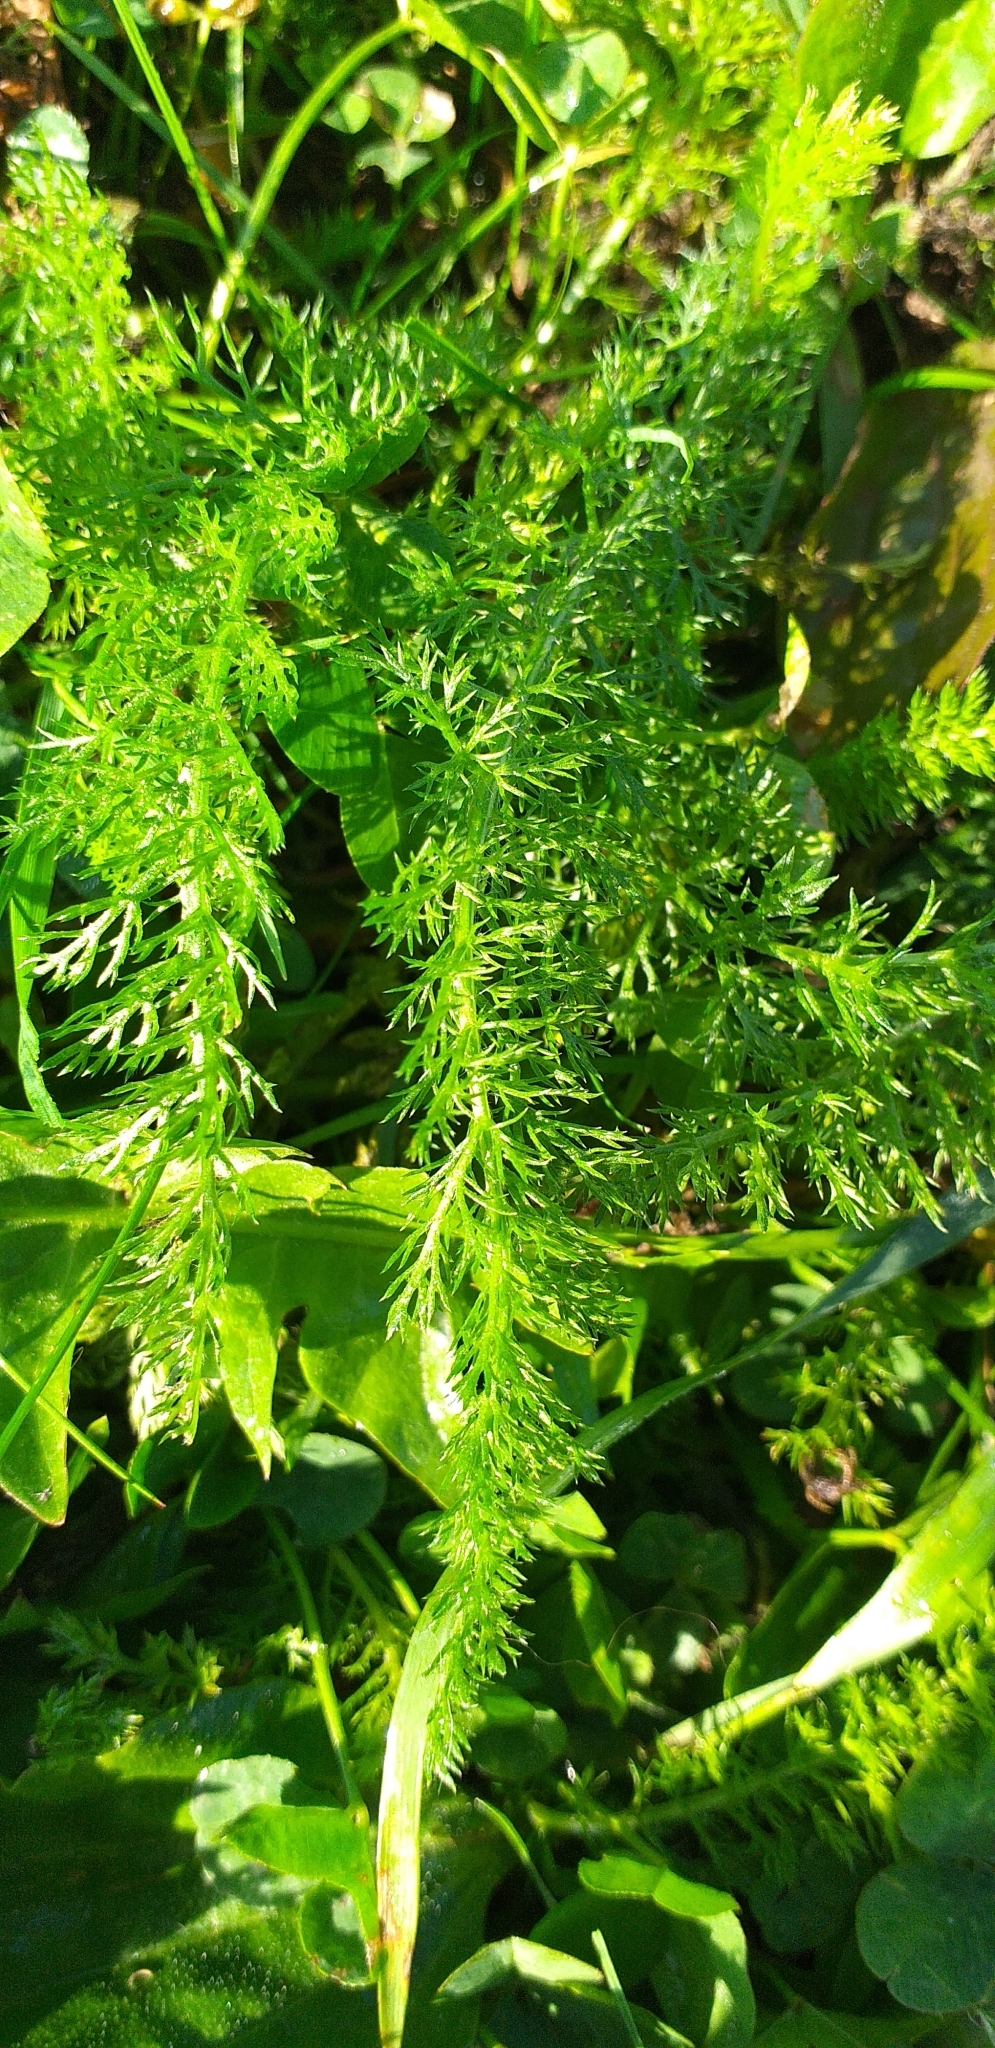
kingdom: Plantae
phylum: Tracheophyta
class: Magnoliopsida
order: Asterales
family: Asteraceae
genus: Achillea
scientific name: Achillea millefolium
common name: Yarrow
